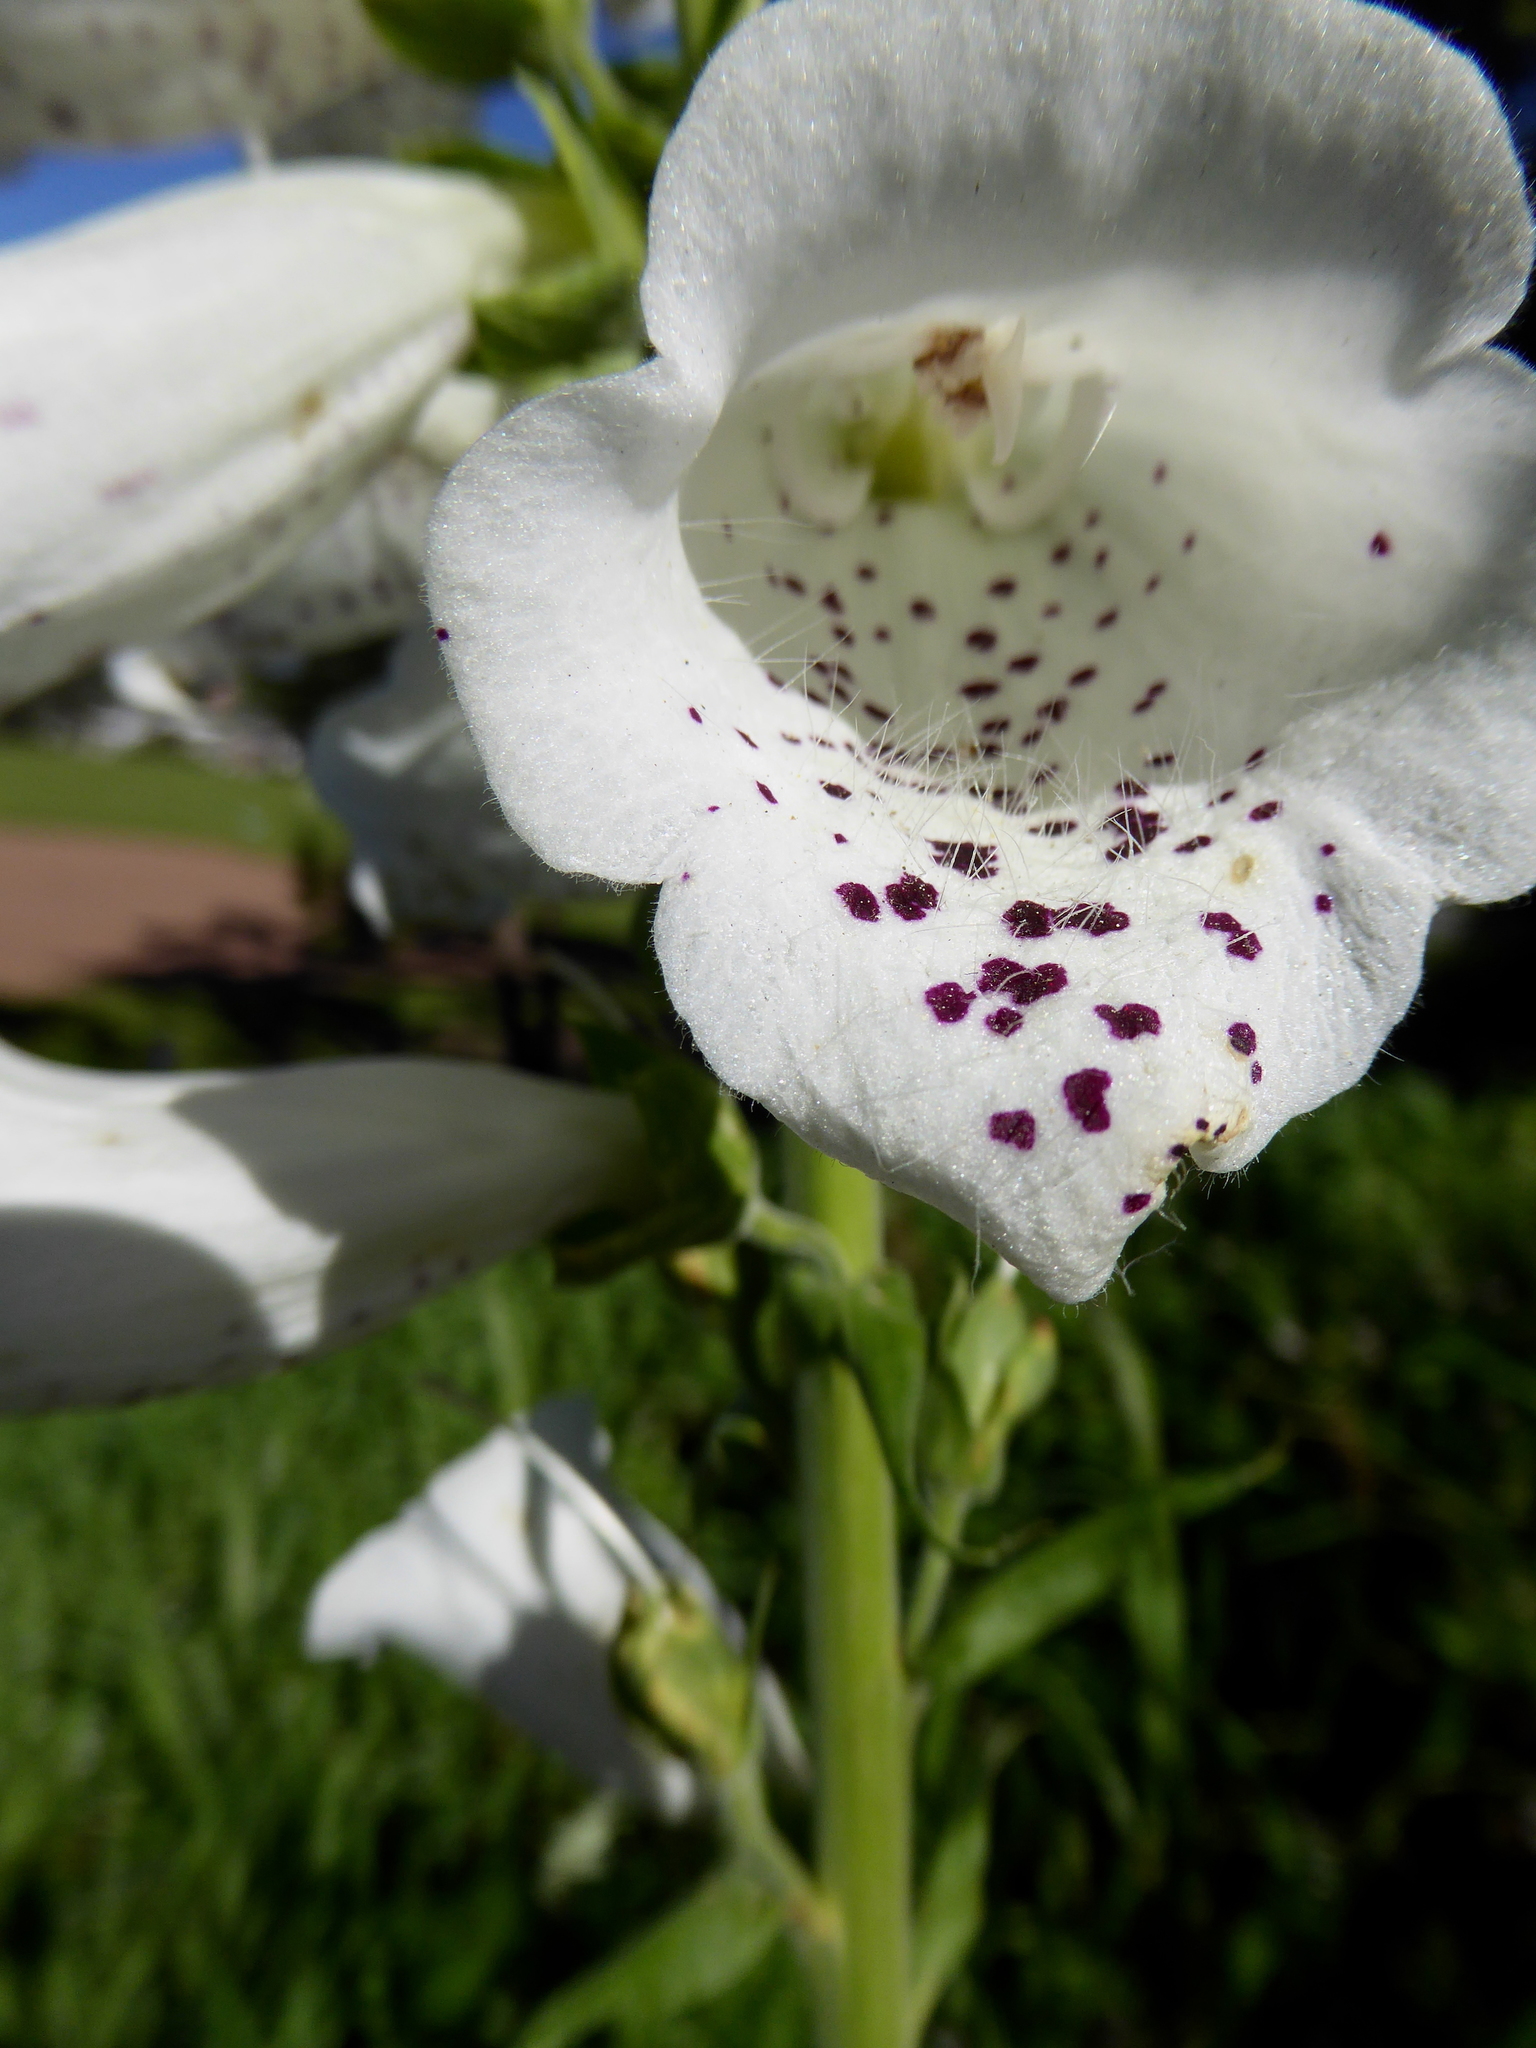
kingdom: Plantae
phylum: Tracheophyta
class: Magnoliopsida
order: Lamiales
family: Plantaginaceae
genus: Digitalis
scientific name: Digitalis purpurea
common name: Foxglove
